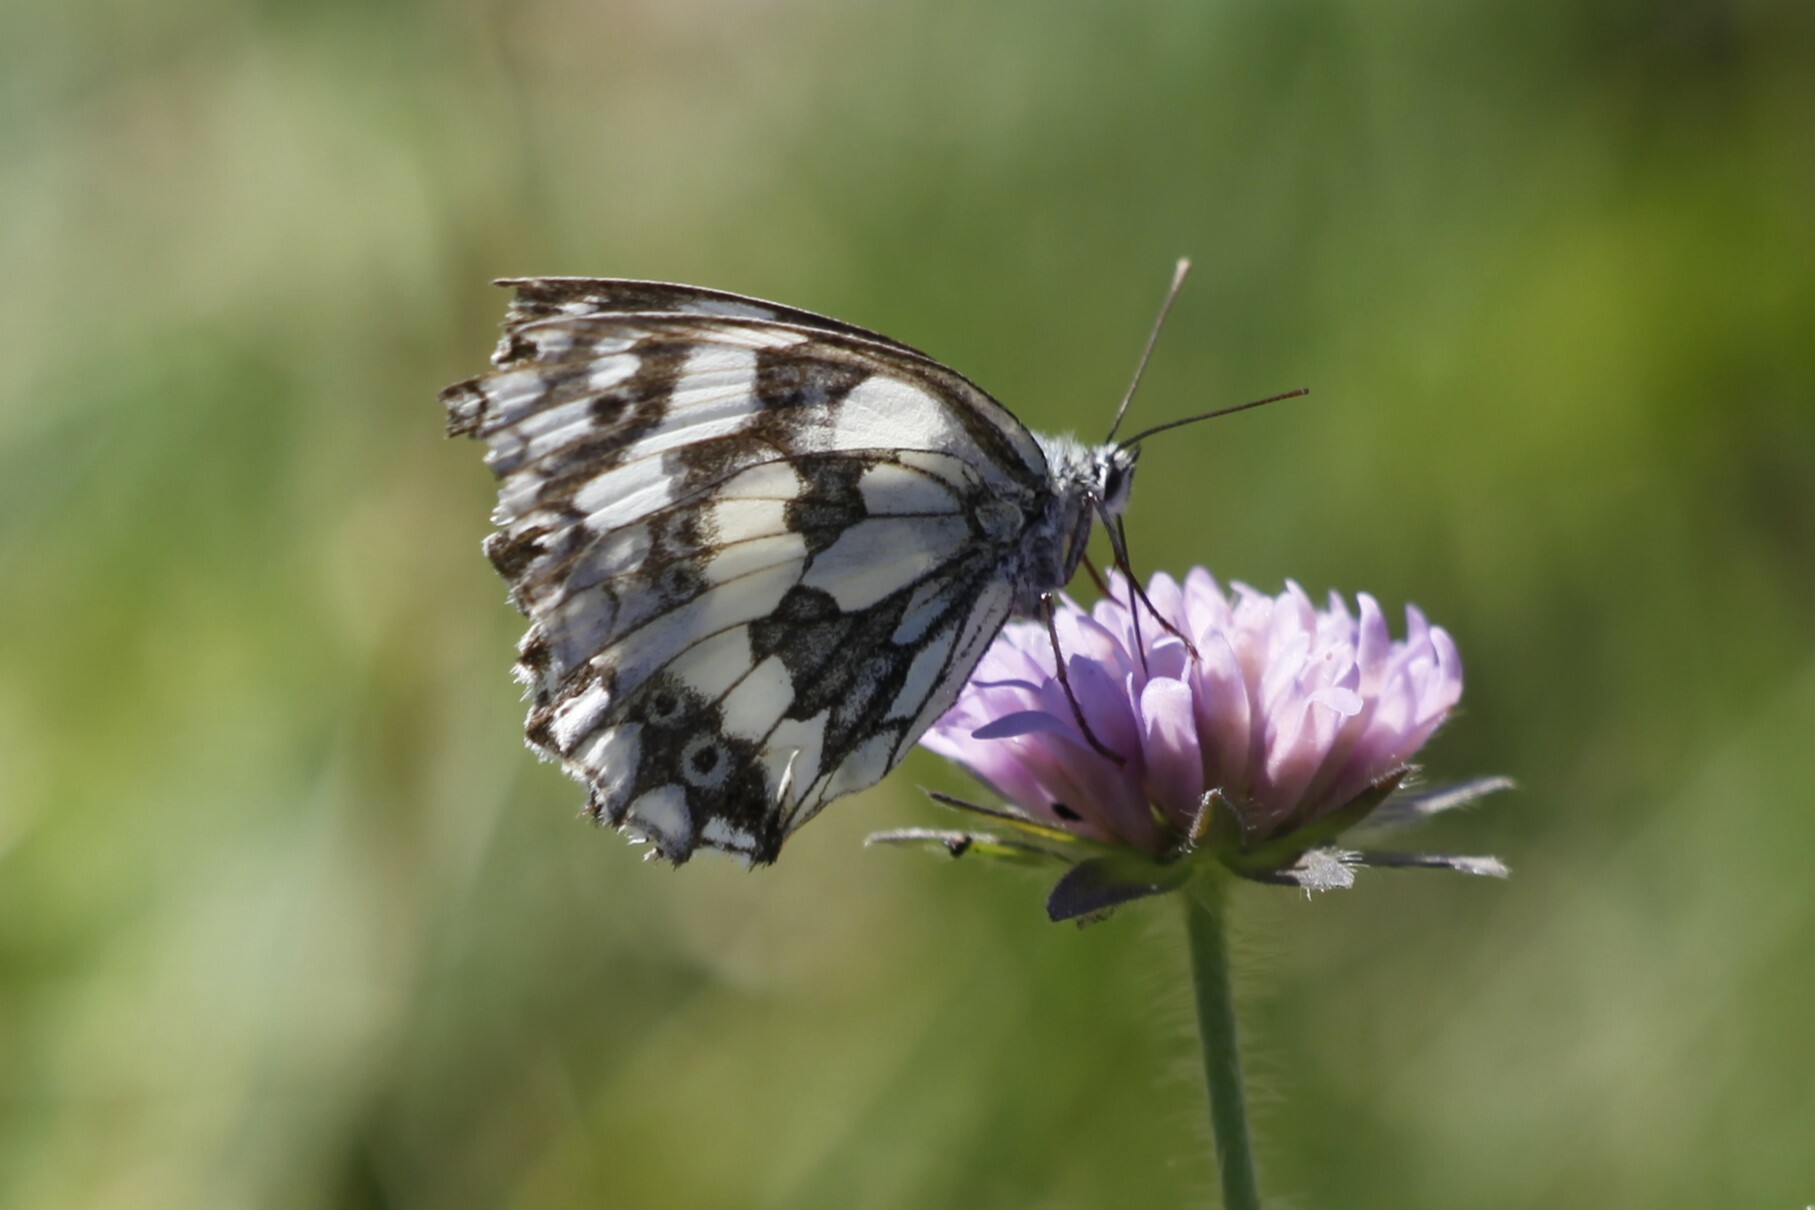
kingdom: Animalia
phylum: Arthropoda
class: Insecta
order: Lepidoptera
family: Nymphalidae
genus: Melanargia
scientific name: Melanargia galathea
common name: Marbled white
